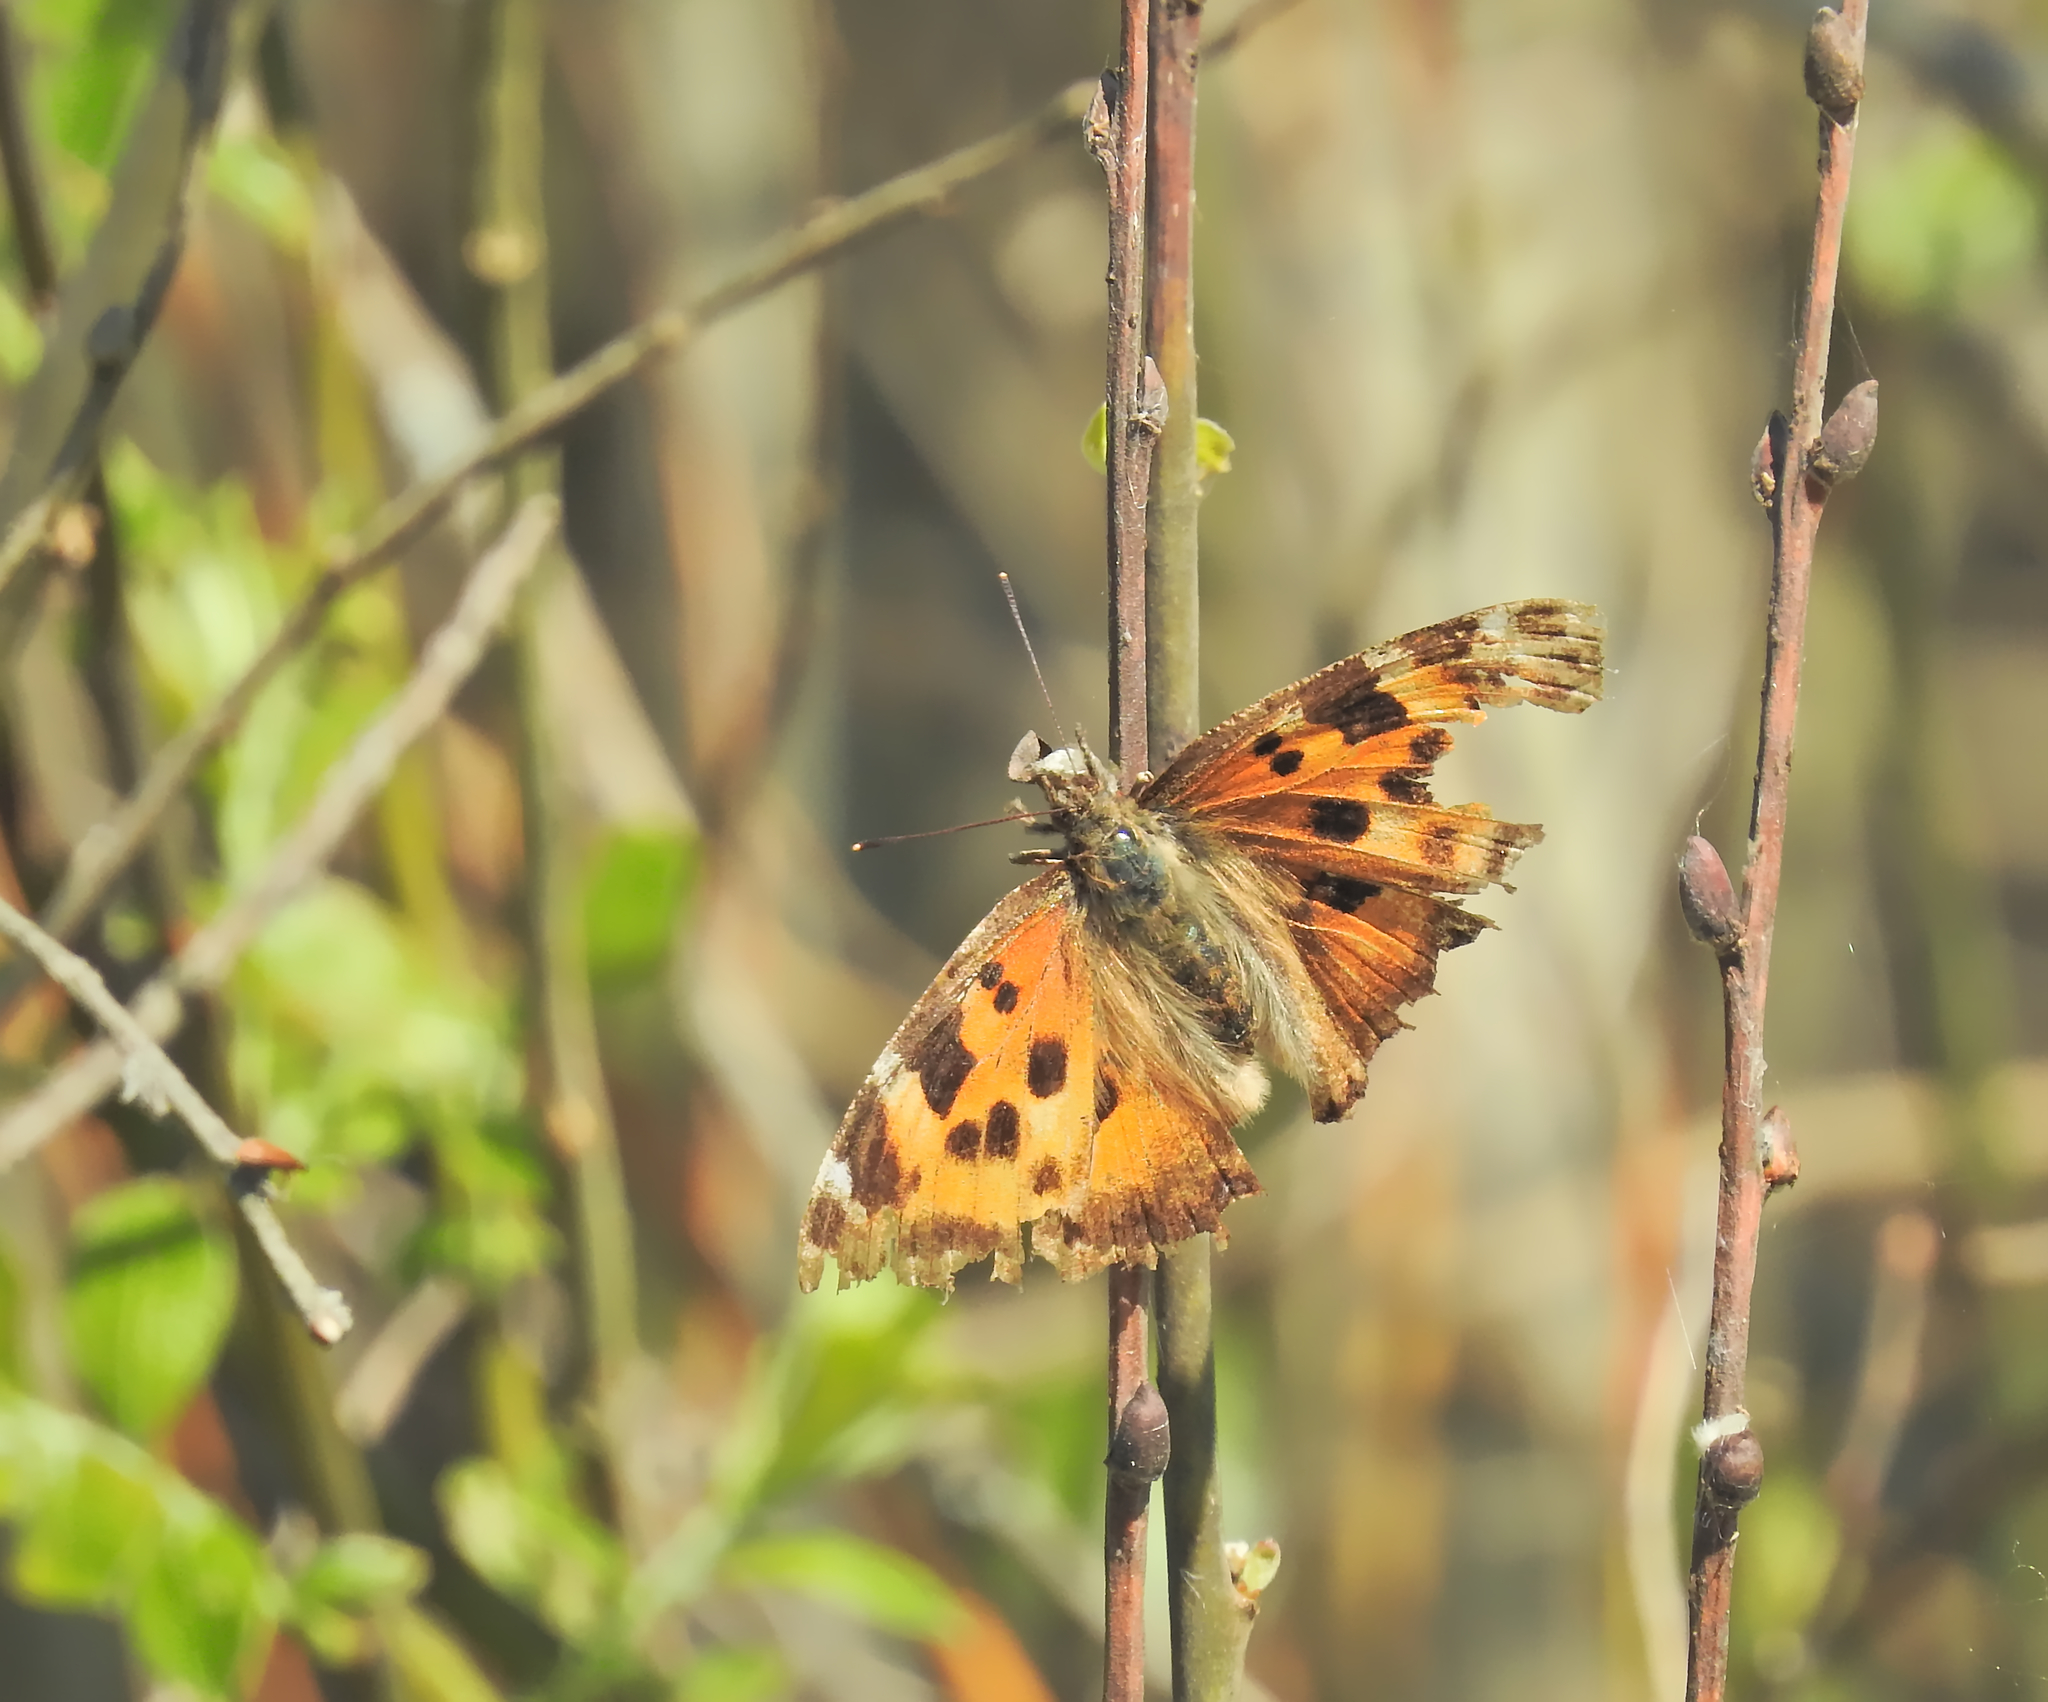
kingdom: Animalia
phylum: Arthropoda
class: Insecta
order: Lepidoptera
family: Nymphalidae
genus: Nymphalis
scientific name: Nymphalis xanthomelas
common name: Scarce tortoiseshell
